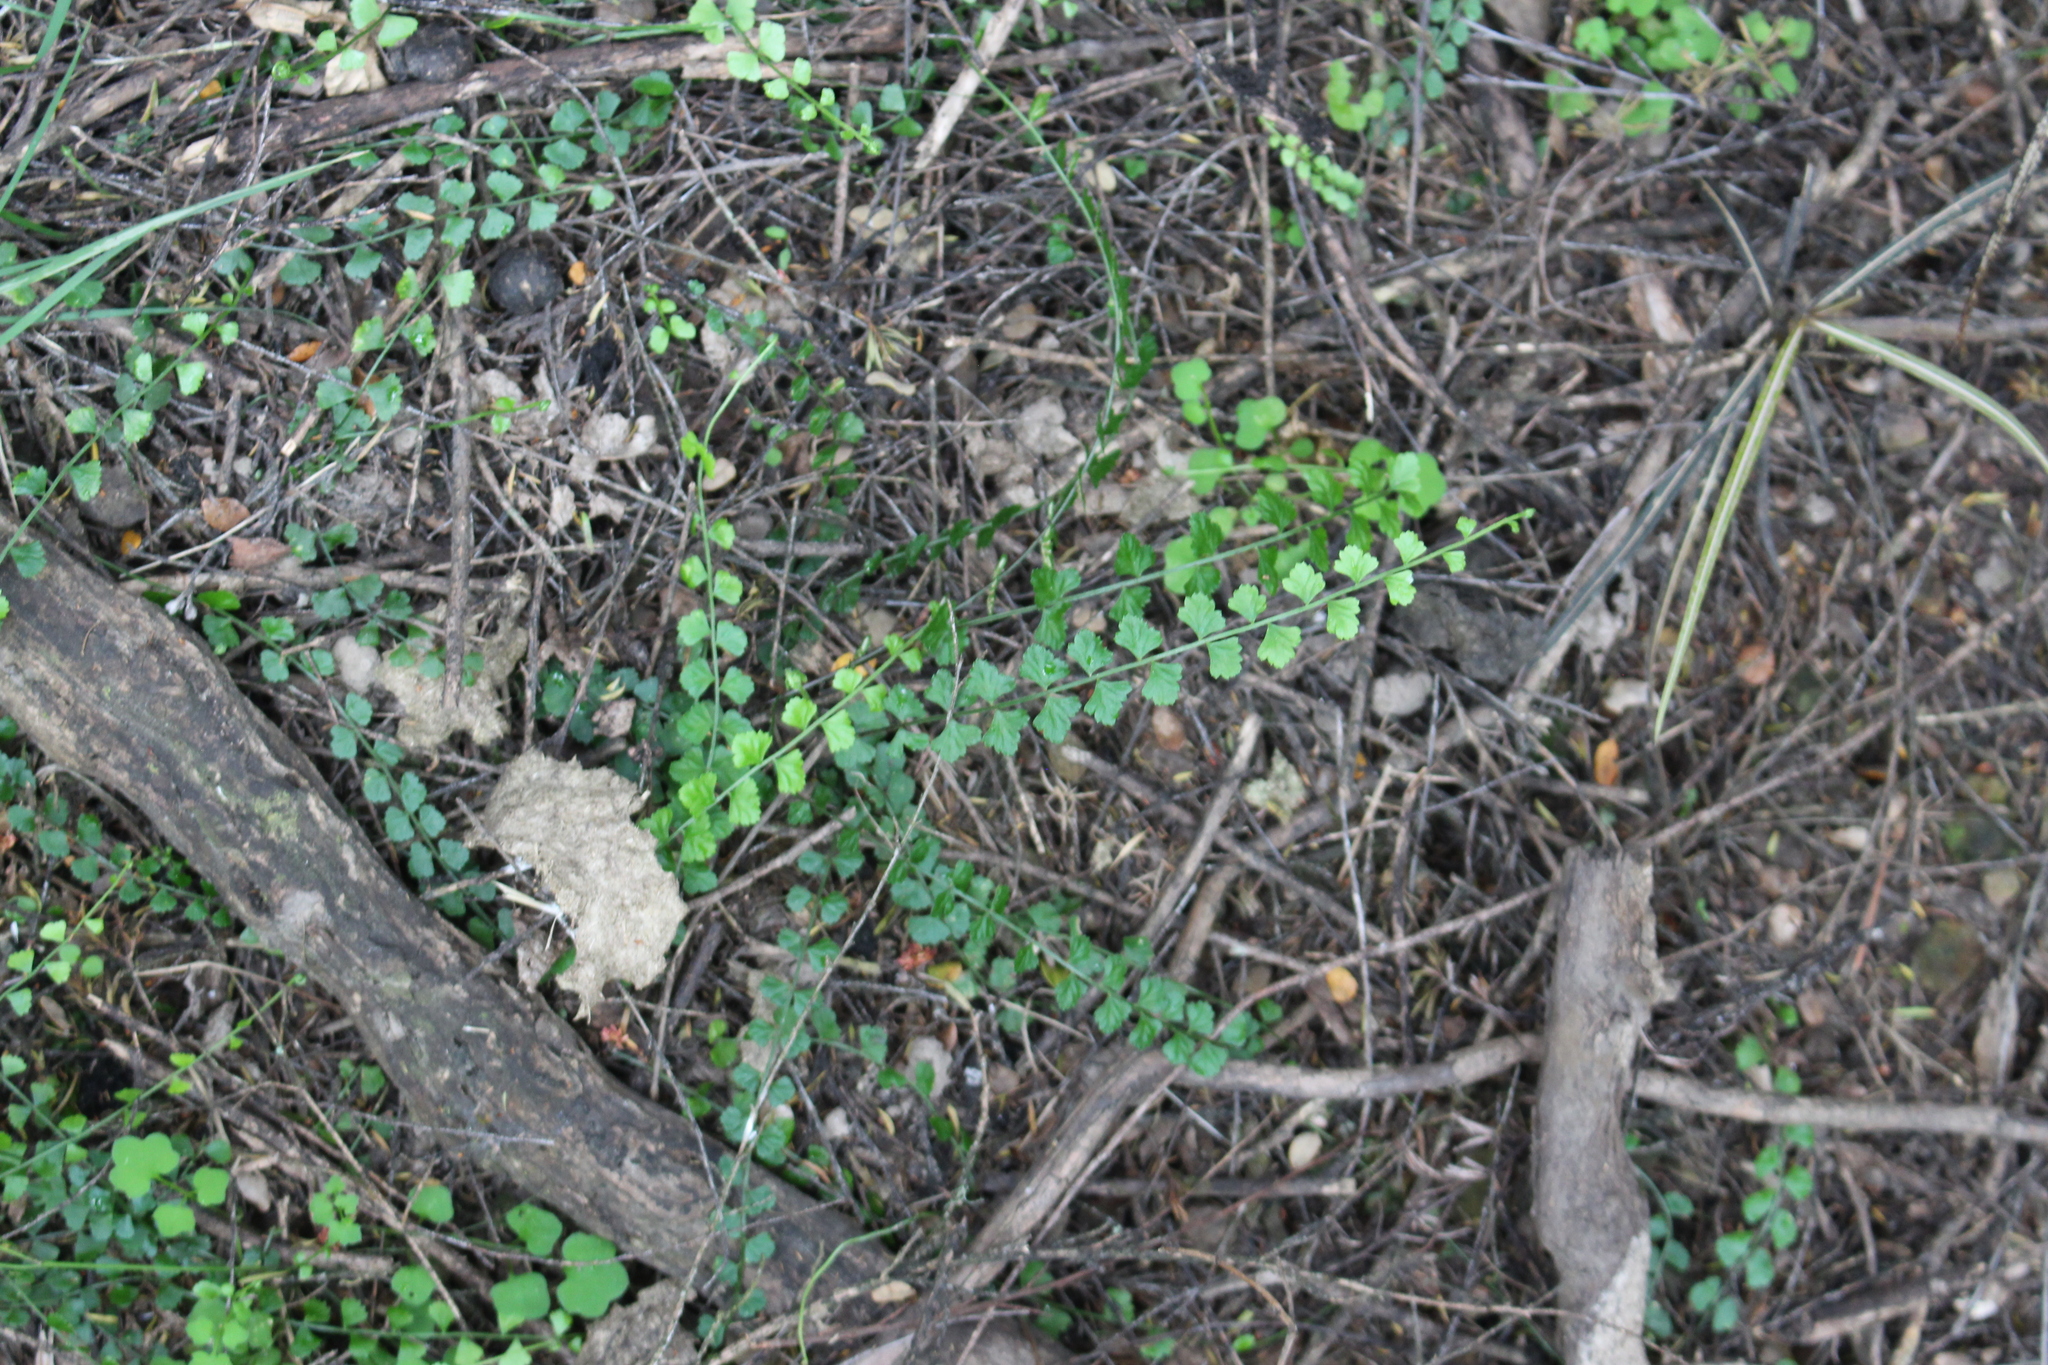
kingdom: Plantae
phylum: Tracheophyta
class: Polypodiopsida
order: Polypodiales
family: Aspleniaceae
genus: Asplenium
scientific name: Asplenium flabellifolium
